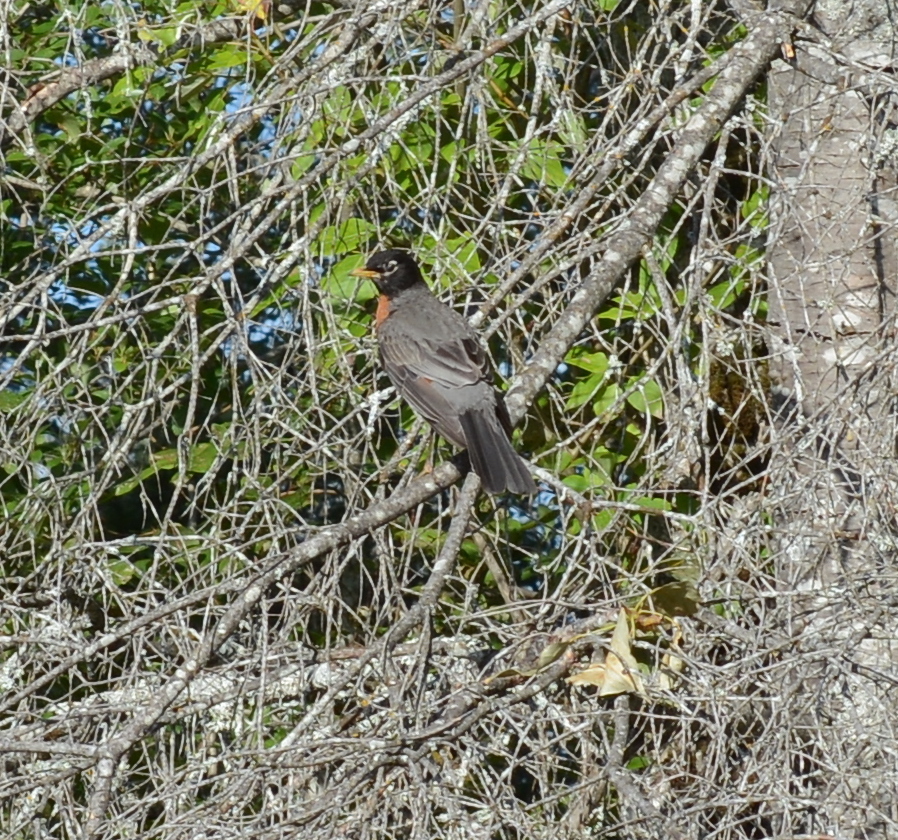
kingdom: Animalia
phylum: Chordata
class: Aves
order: Passeriformes
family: Turdidae
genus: Turdus
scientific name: Turdus migratorius
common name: American robin
